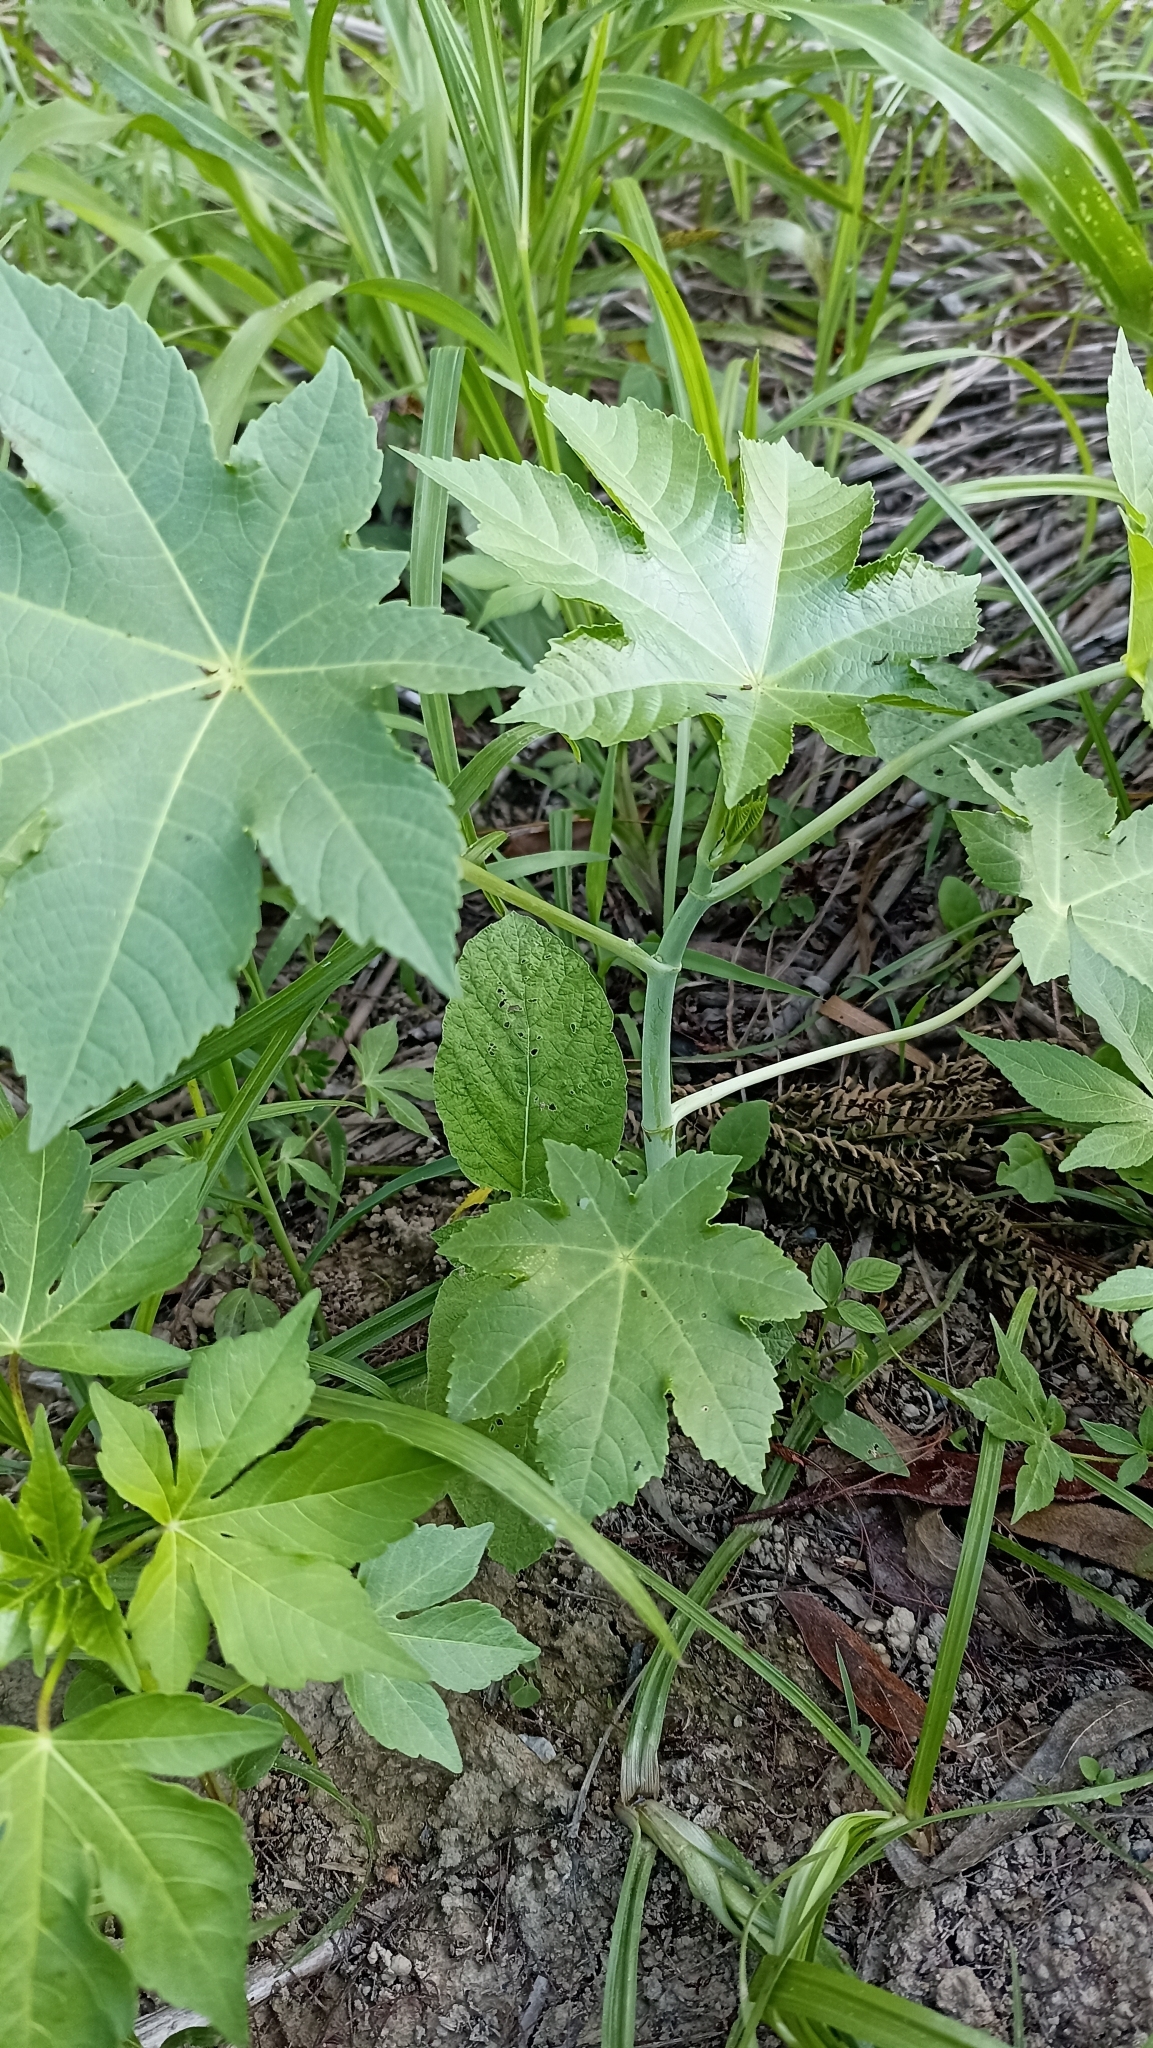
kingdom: Plantae
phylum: Tracheophyta
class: Magnoliopsida
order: Malpighiales
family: Euphorbiaceae
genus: Ricinus
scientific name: Ricinus communis
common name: Castor-oil-plant
